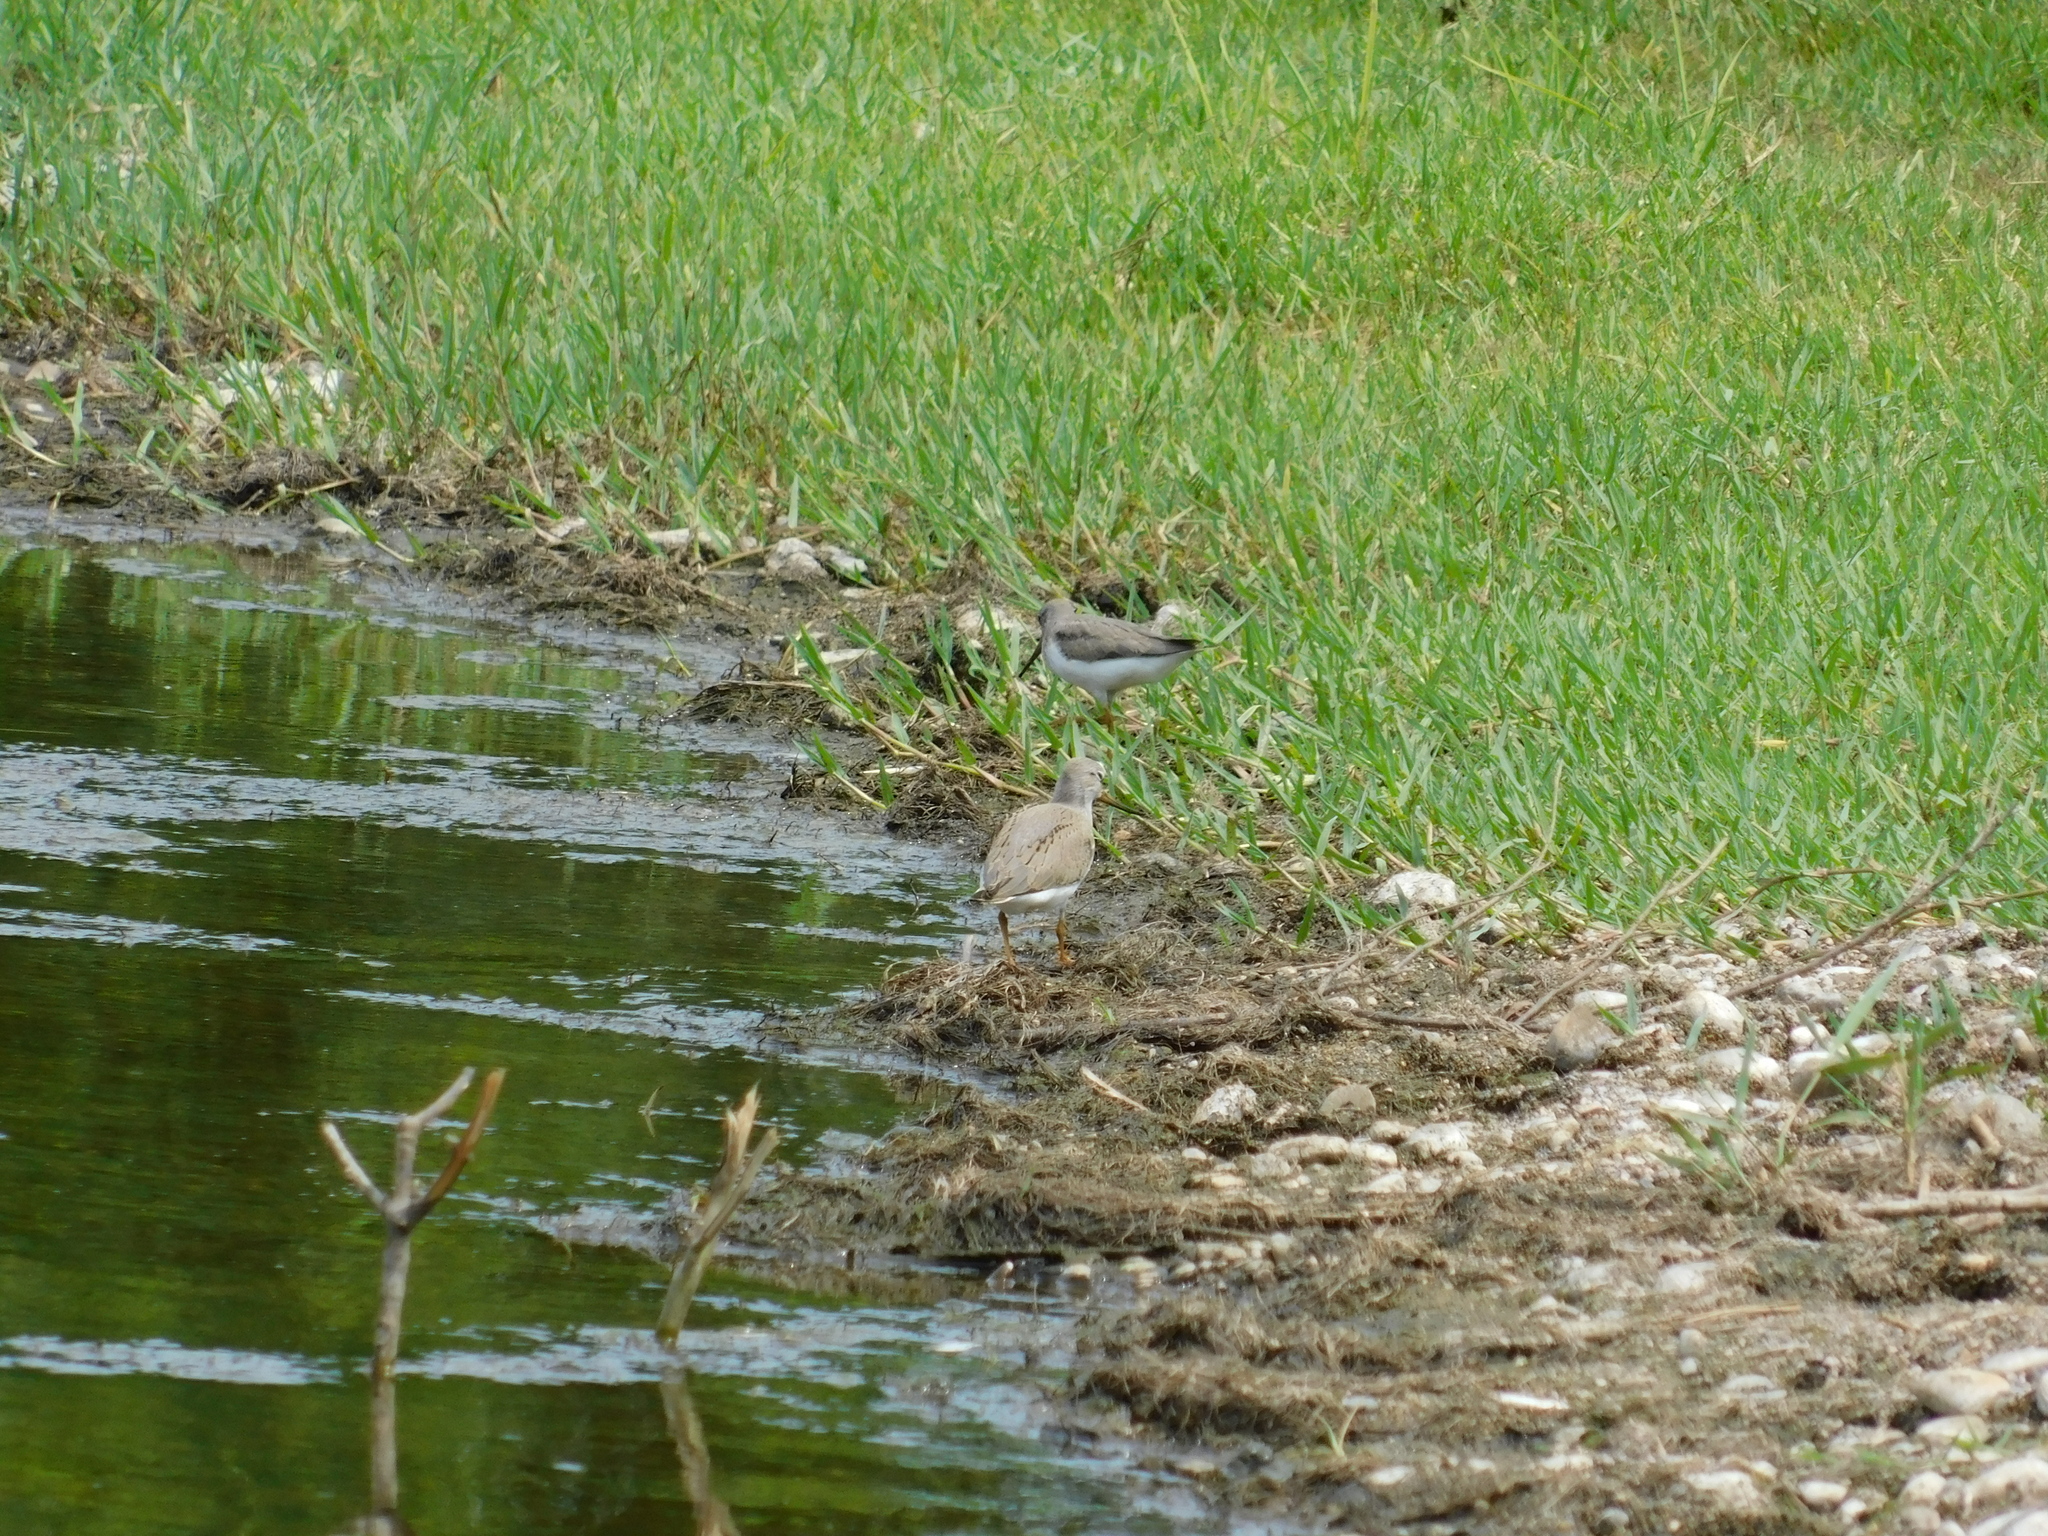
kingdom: Animalia
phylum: Chordata
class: Aves
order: Charadriiformes
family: Scolopacidae
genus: Xenus
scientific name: Xenus cinereus
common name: Terek sandpiper
